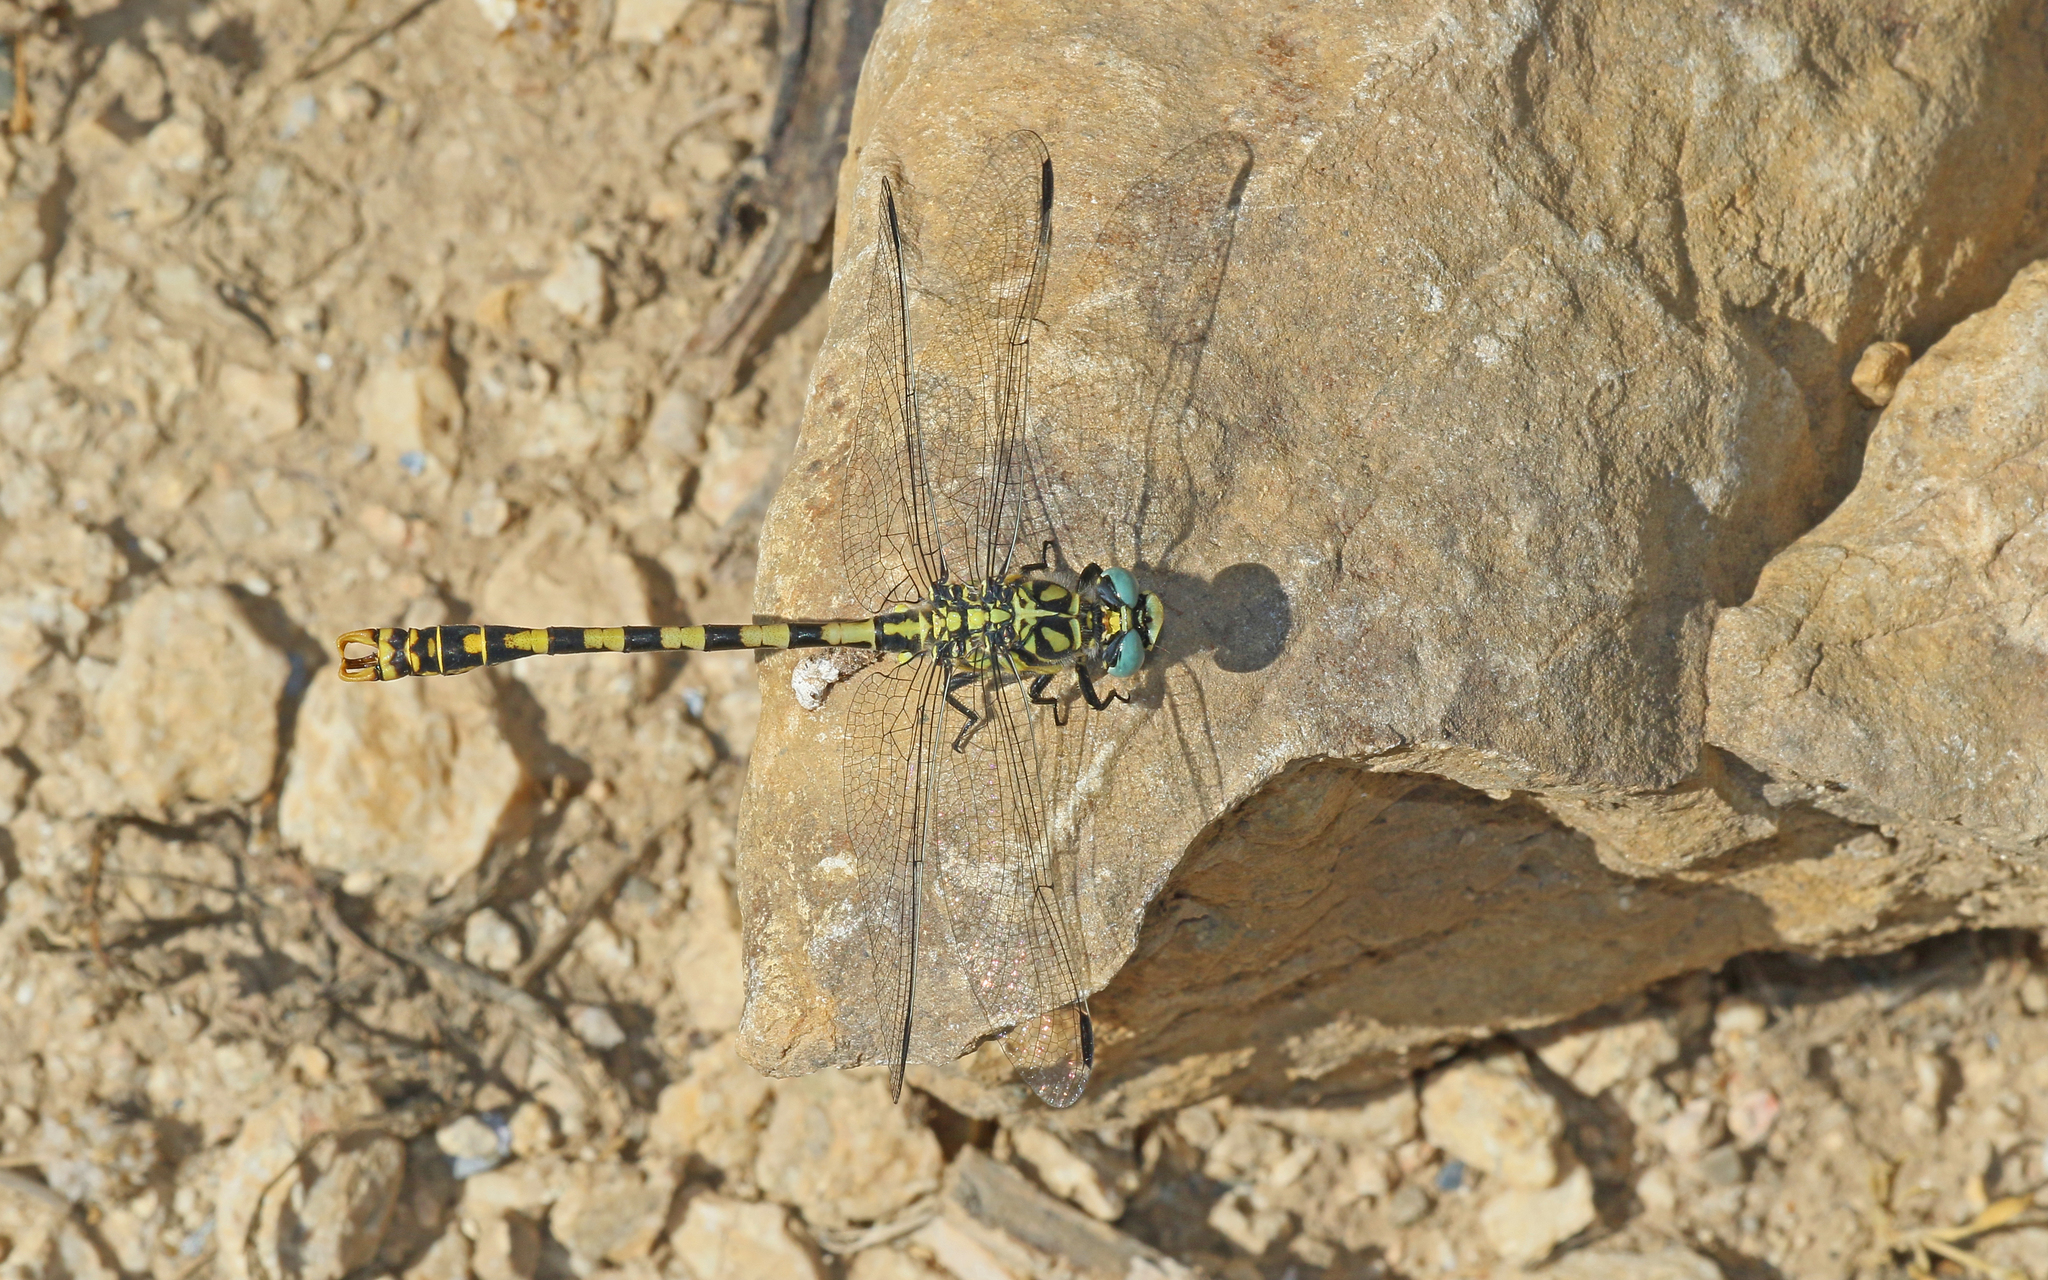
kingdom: Animalia
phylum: Arthropoda
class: Insecta
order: Odonata
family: Gomphidae
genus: Onychogomphus
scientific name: Onychogomphus forcipatus
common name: Small pincertail
